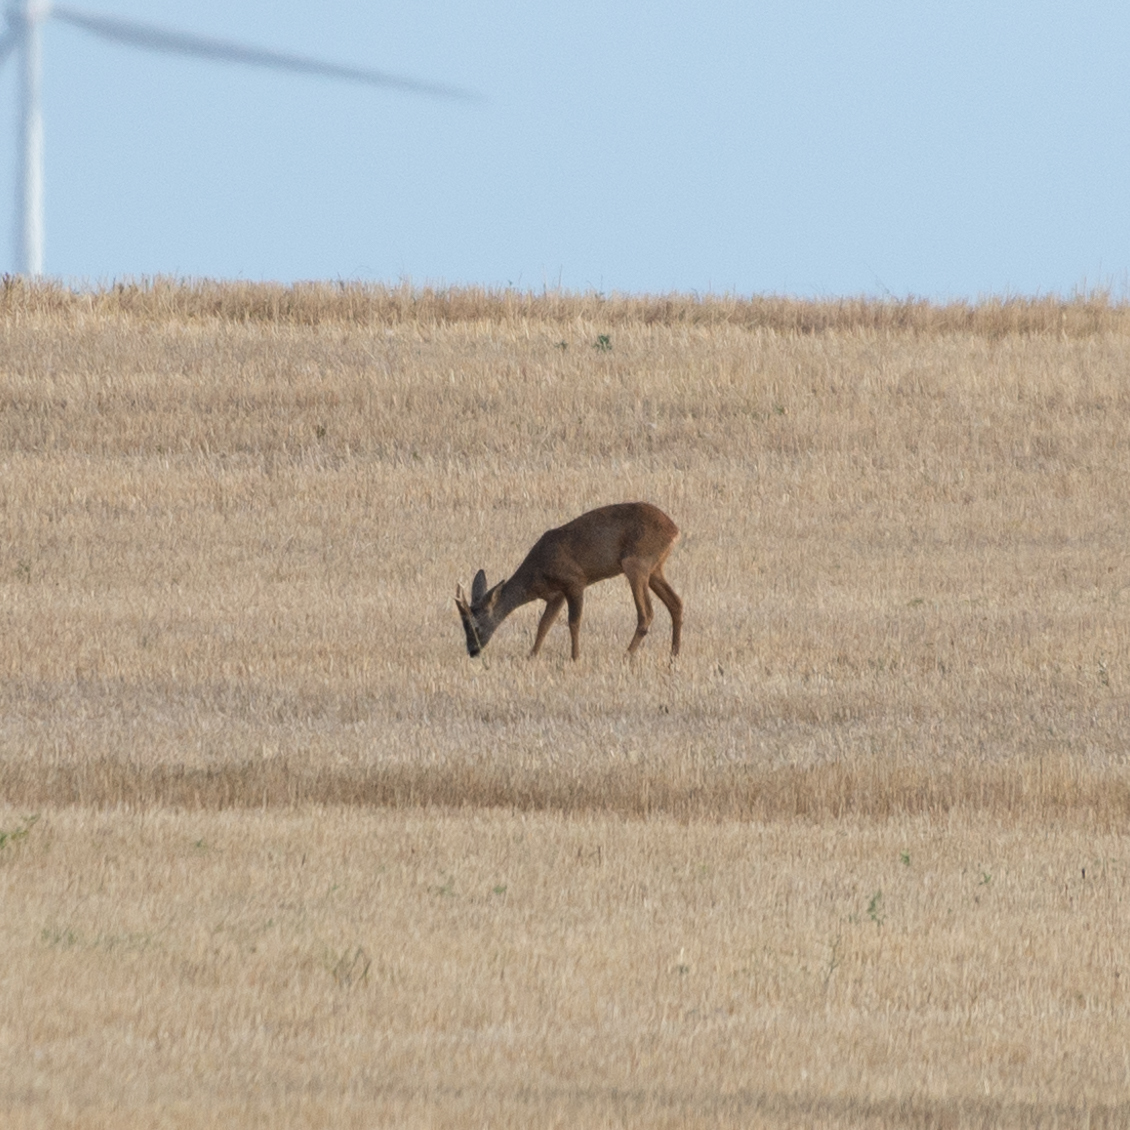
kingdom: Animalia
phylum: Chordata
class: Mammalia
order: Artiodactyla
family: Cervidae
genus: Capreolus
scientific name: Capreolus capreolus
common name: Western roe deer
